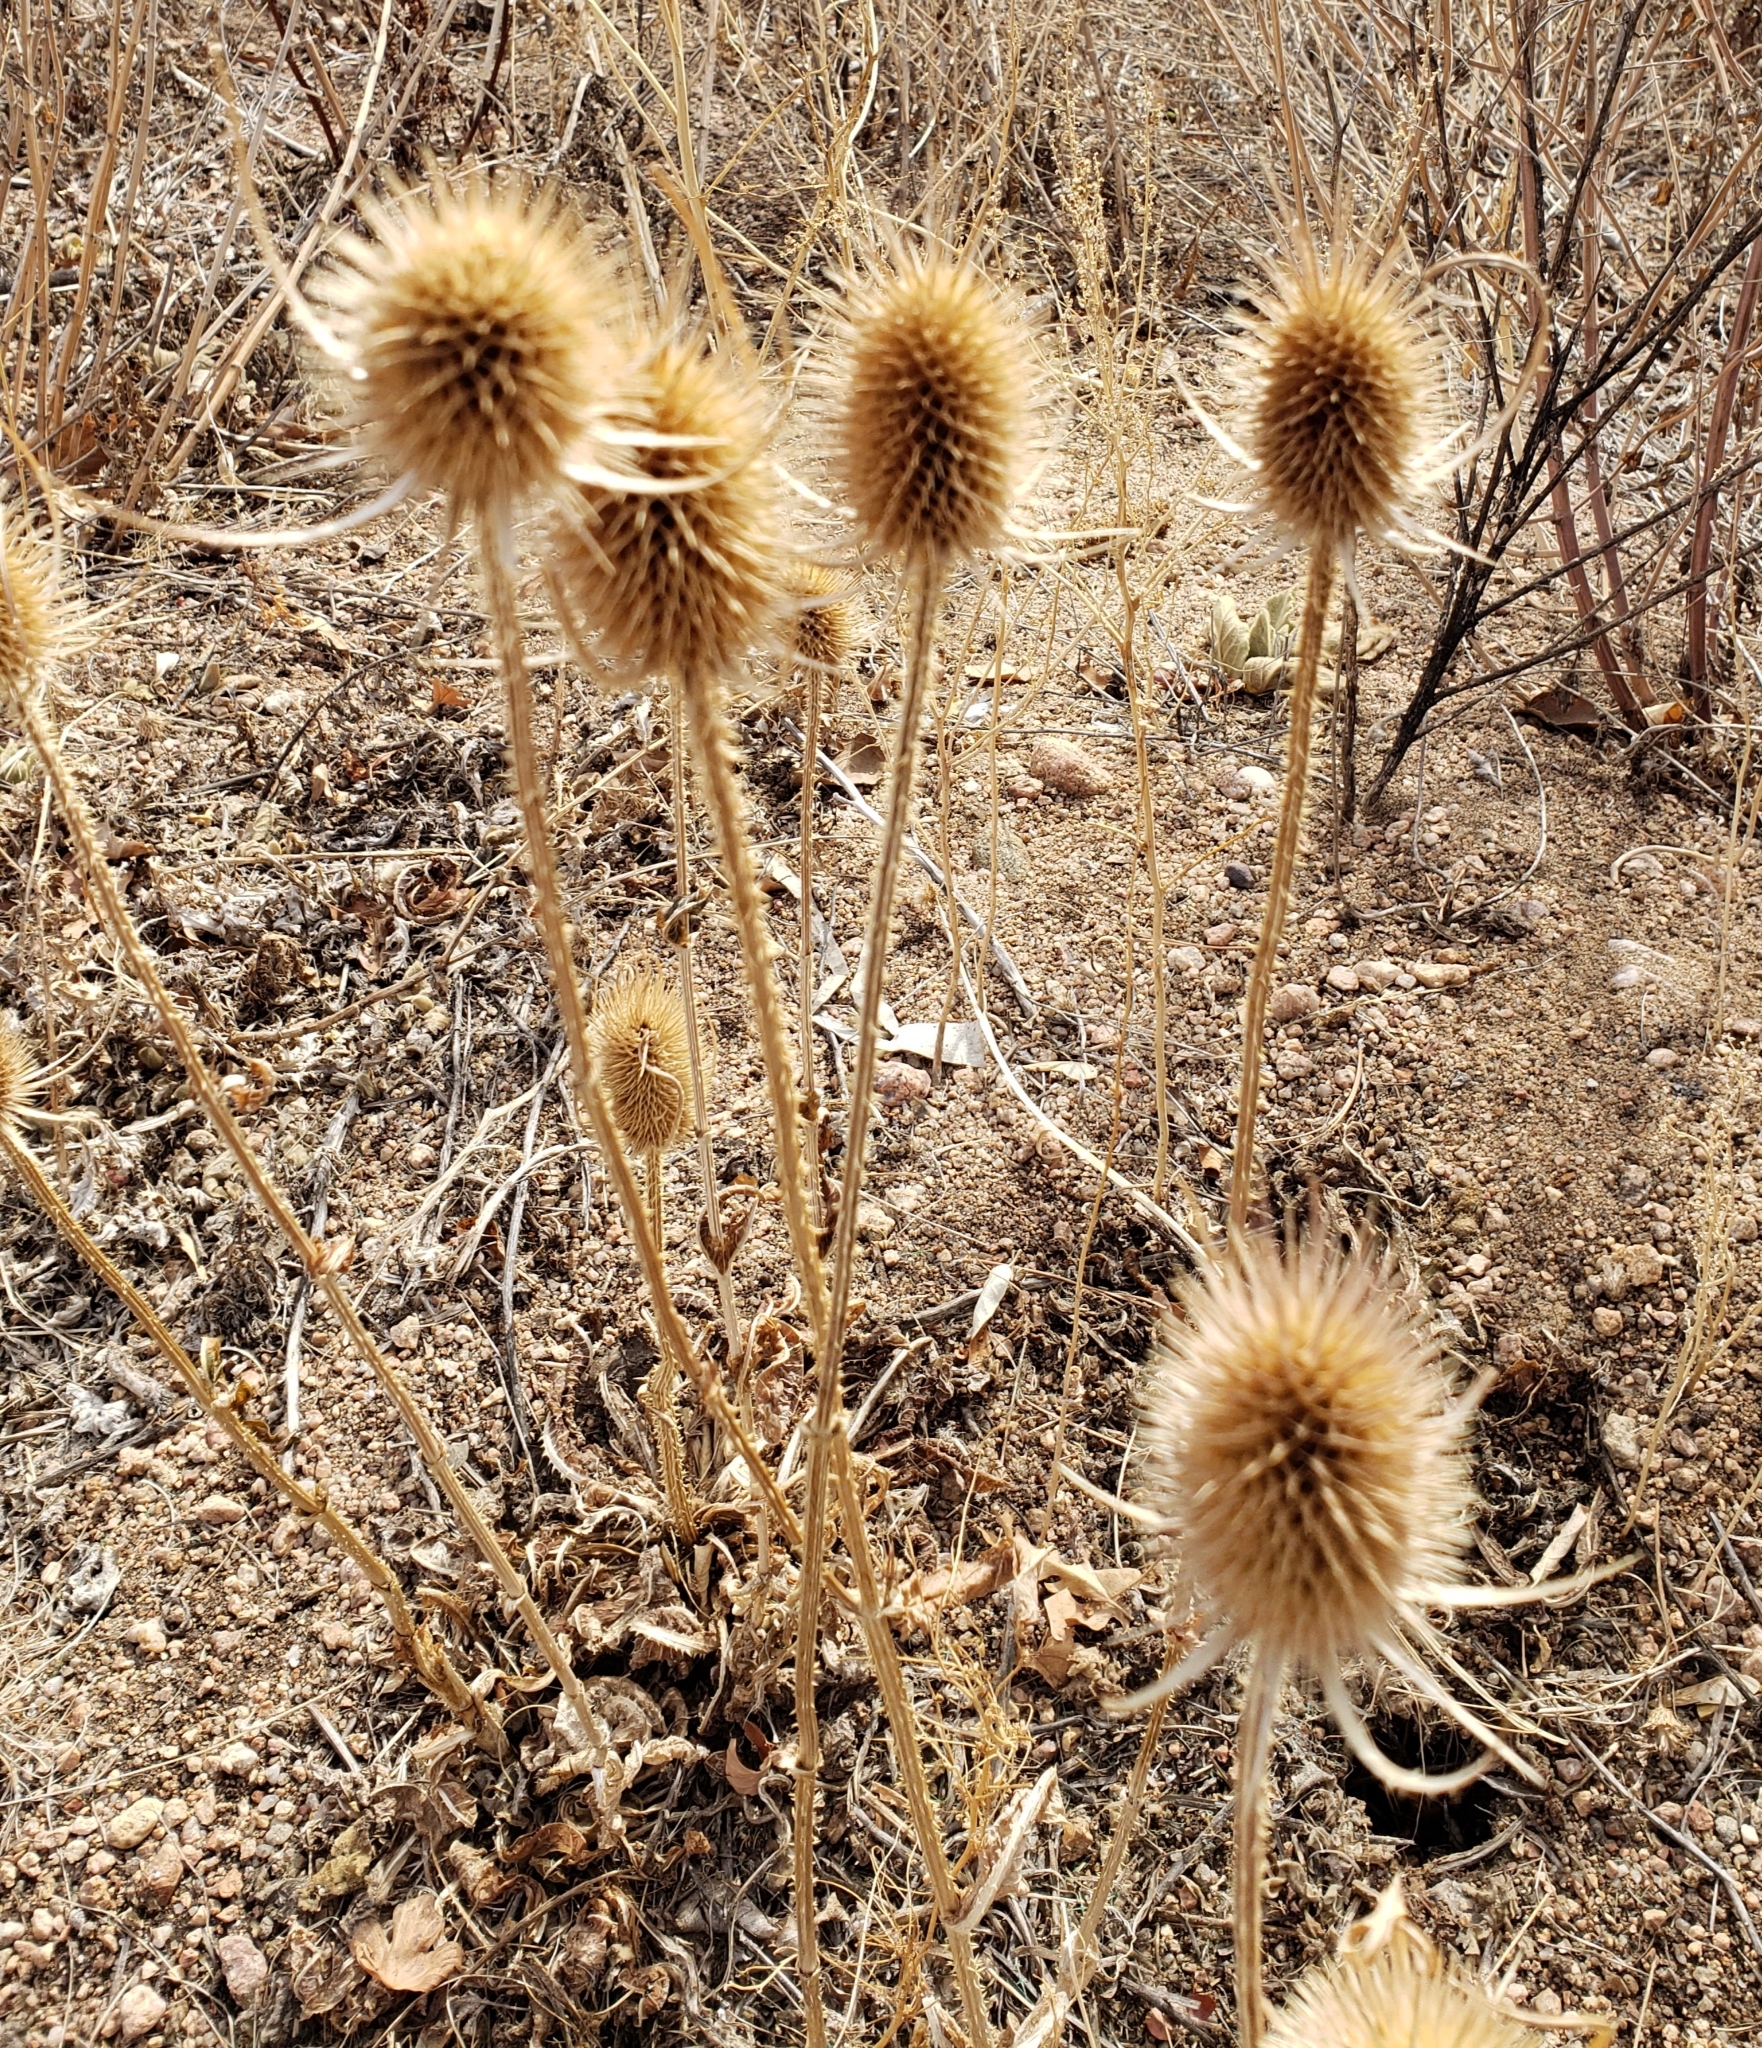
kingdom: Plantae
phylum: Tracheophyta
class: Magnoliopsida
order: Dipsacales
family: Caprifoliaceae
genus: Dipsacus
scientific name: Dipsacus fullonum
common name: Teasel
